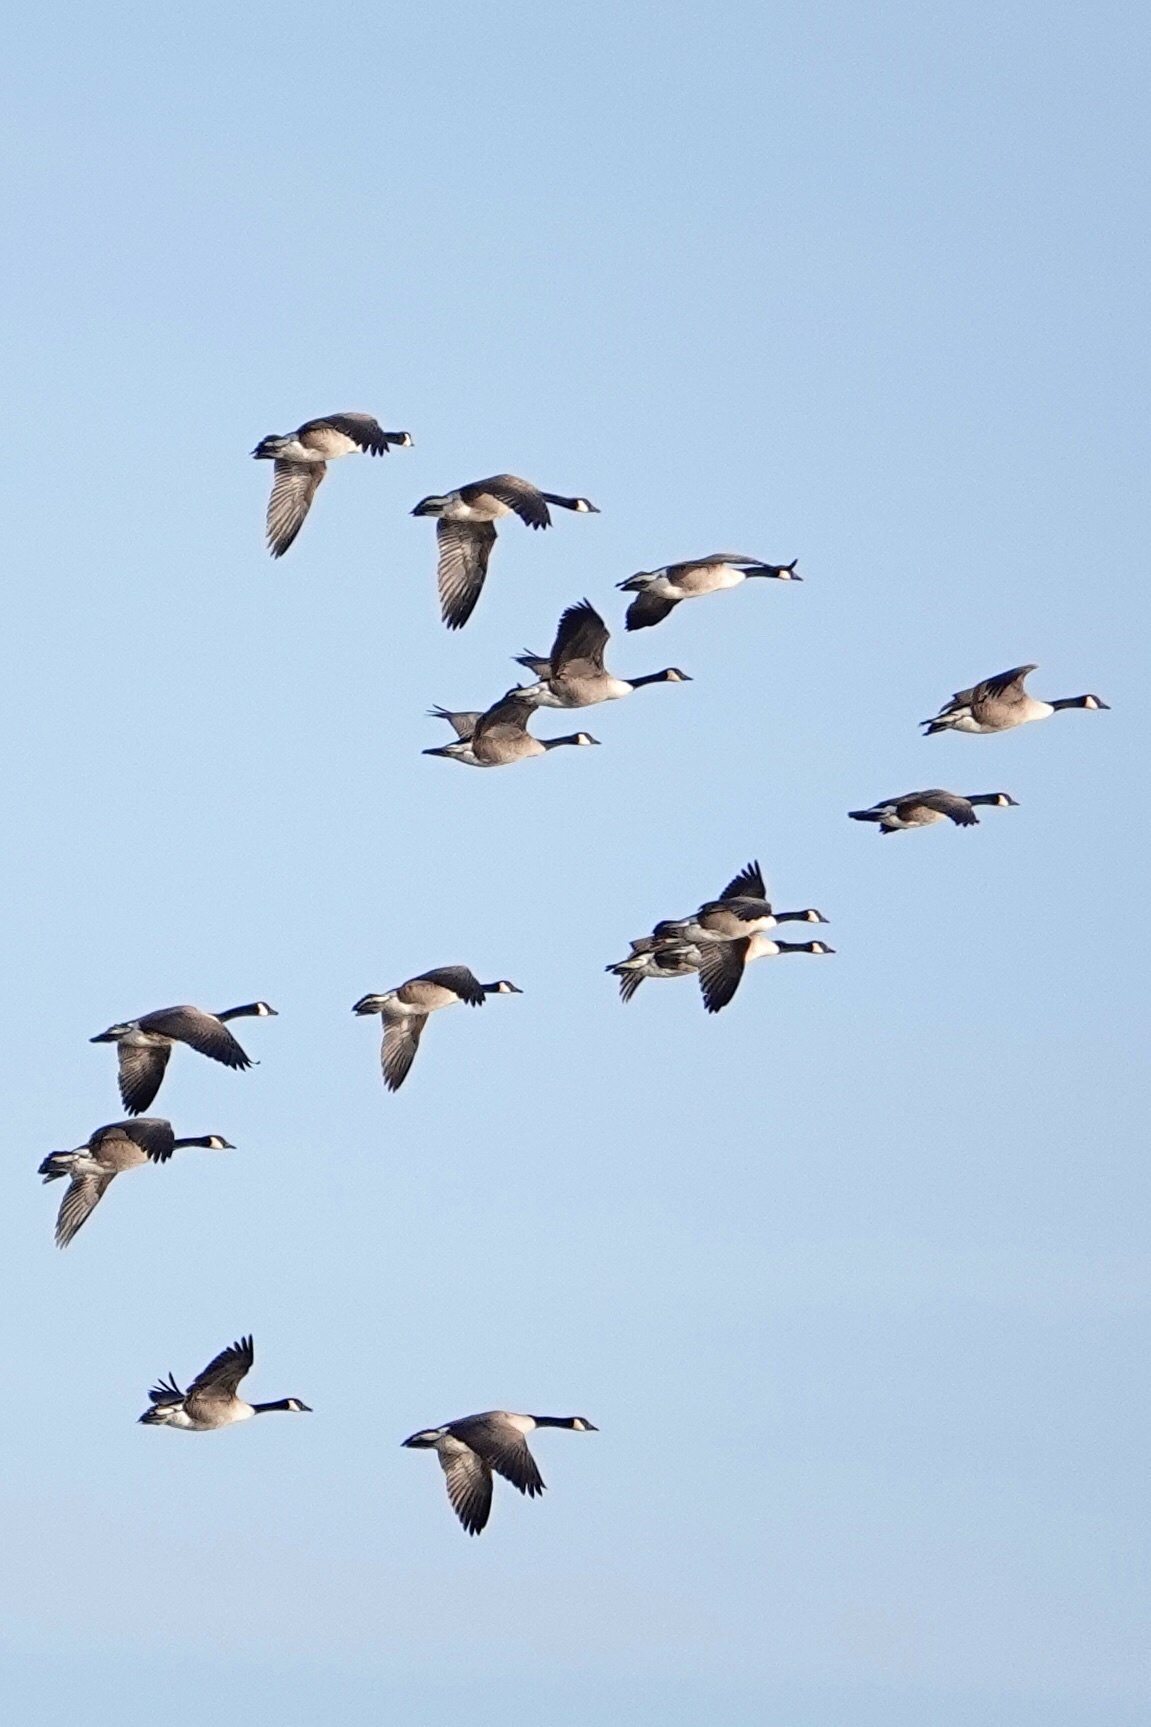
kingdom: Animalia
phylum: Chordata
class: Aves
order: Anseriformes
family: Anatidae
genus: Branta
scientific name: Branta canadensis
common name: Canada goose
